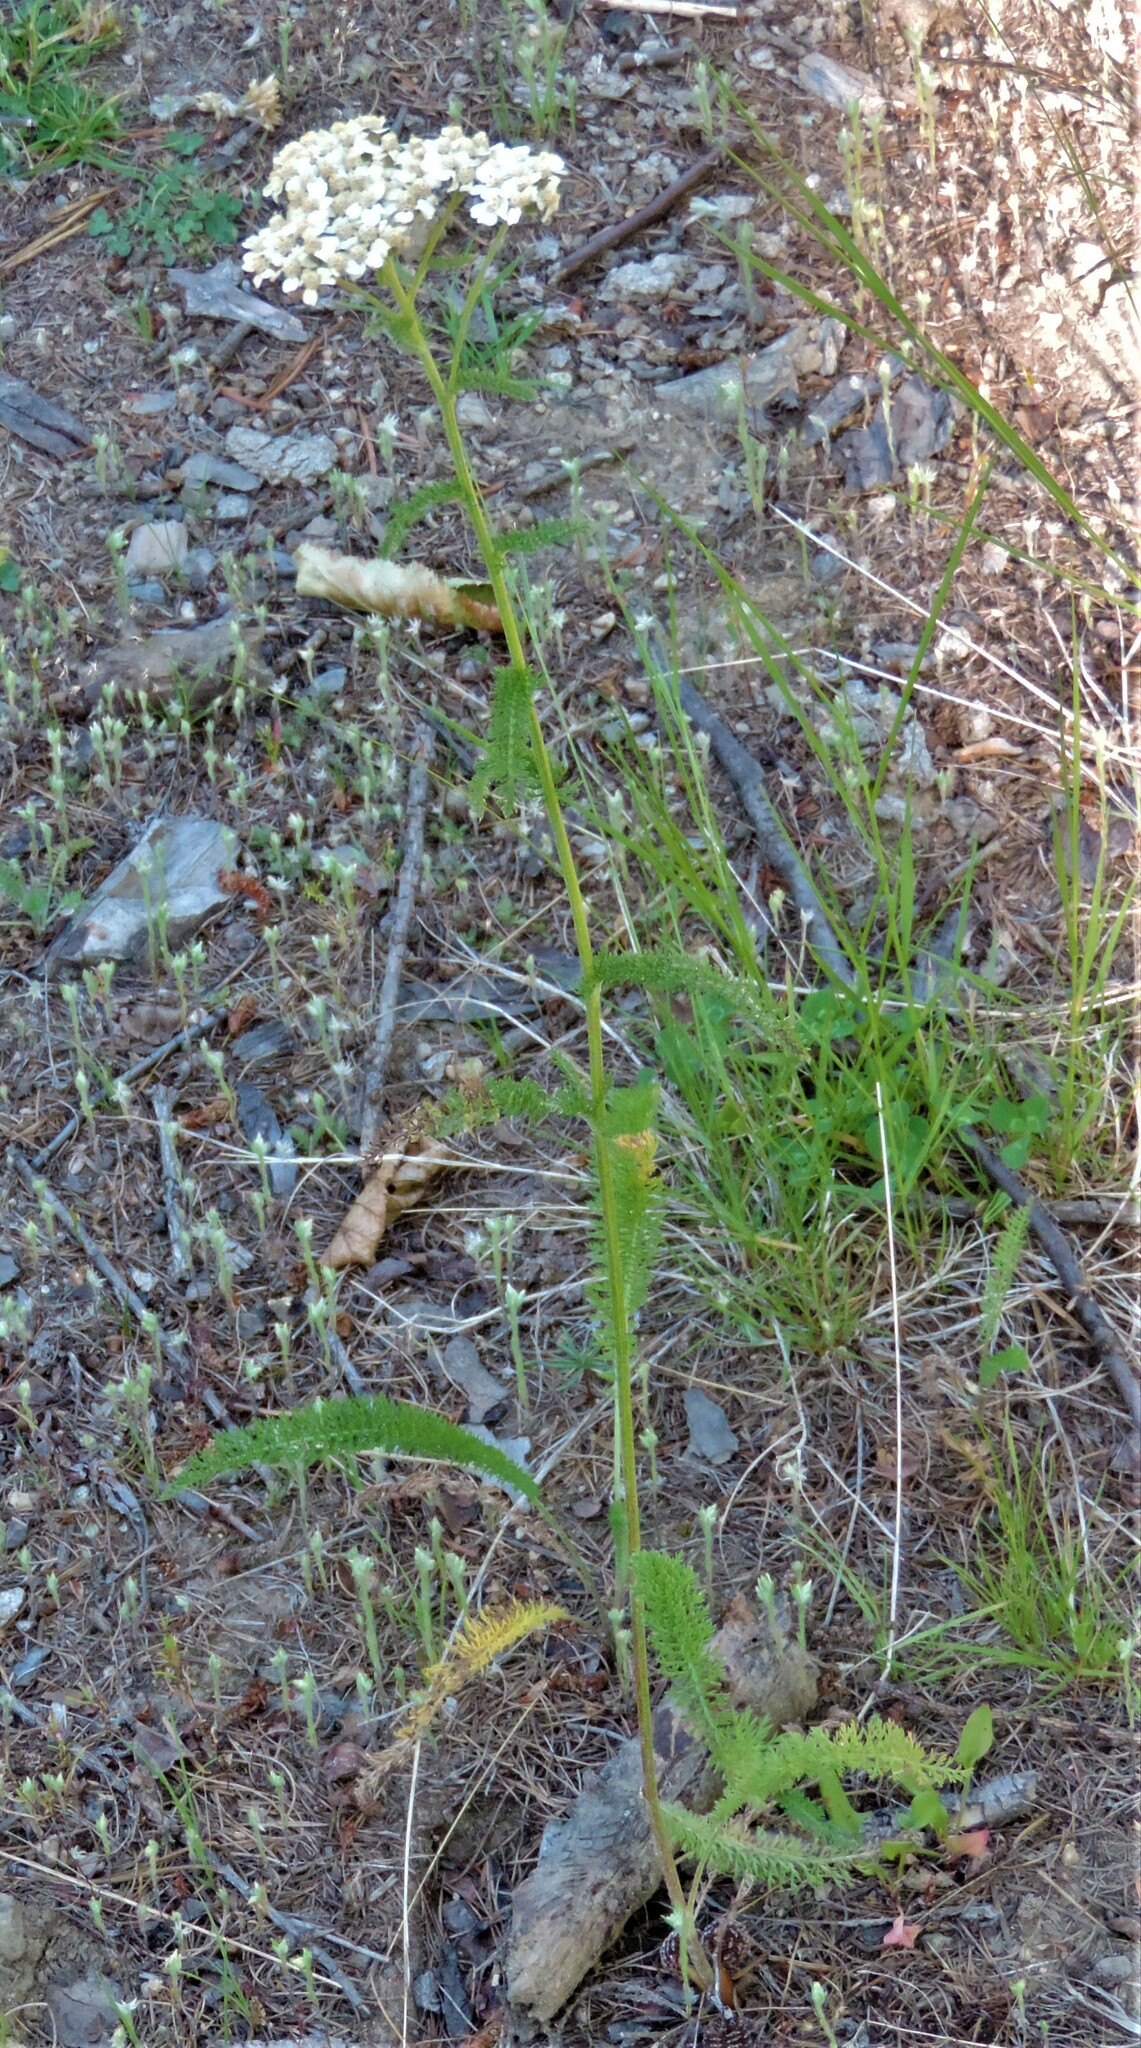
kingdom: Plantae
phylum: Tracheophyta
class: Magnoliopsida
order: Asterales
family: Asteraceae
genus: Achillea
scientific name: Achillea millefolium
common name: Yarrow
